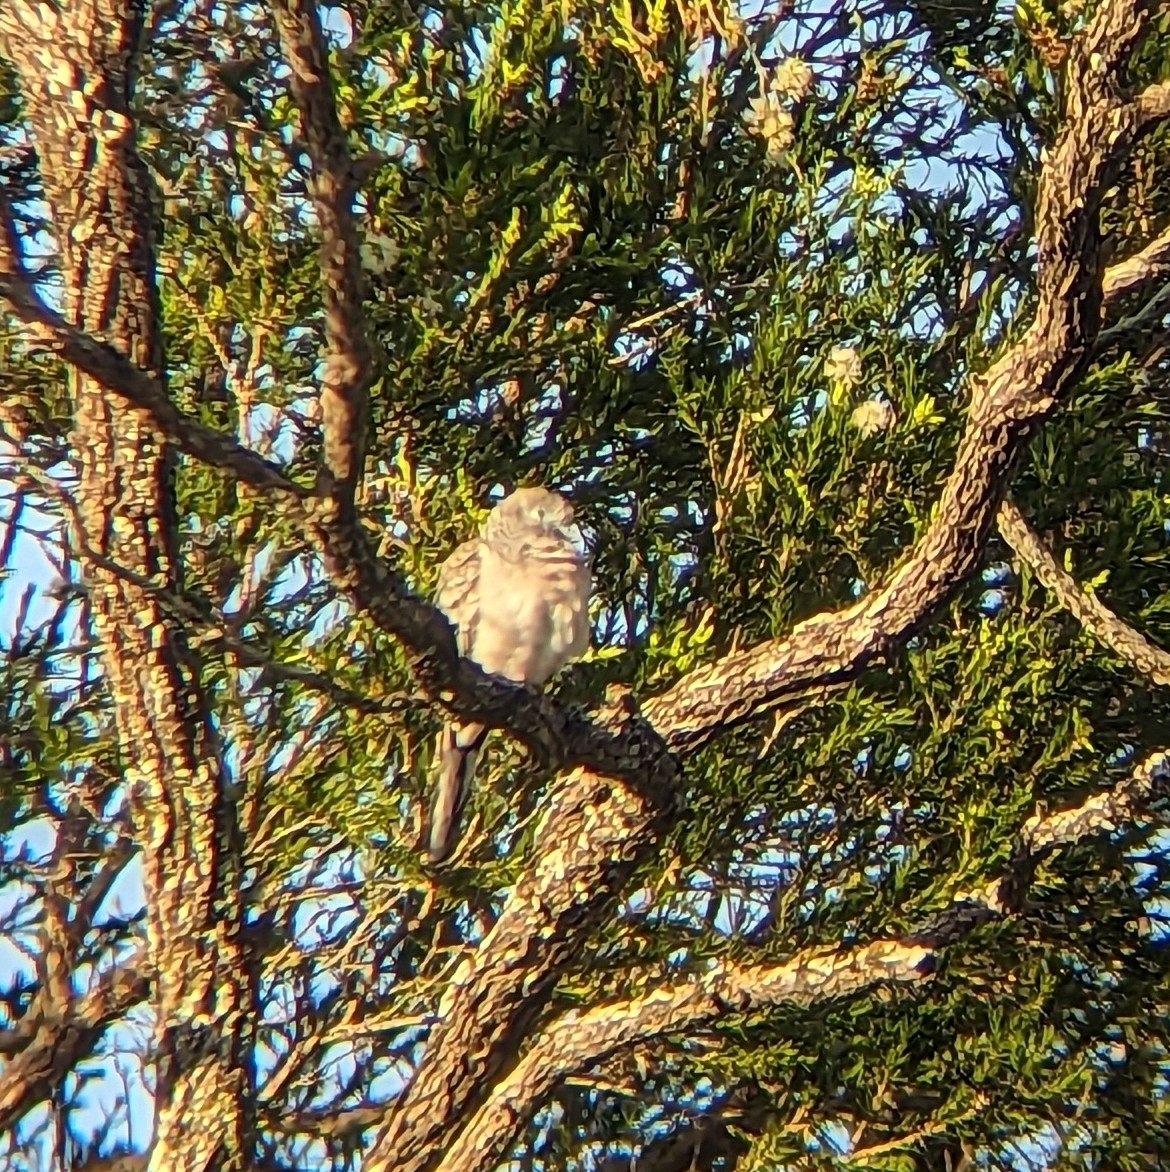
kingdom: Animalia
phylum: Chordata
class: Aves
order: Columbiformes
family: Columbidae
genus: Geopelia
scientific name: Geopelia placida
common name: Peaceful dove
